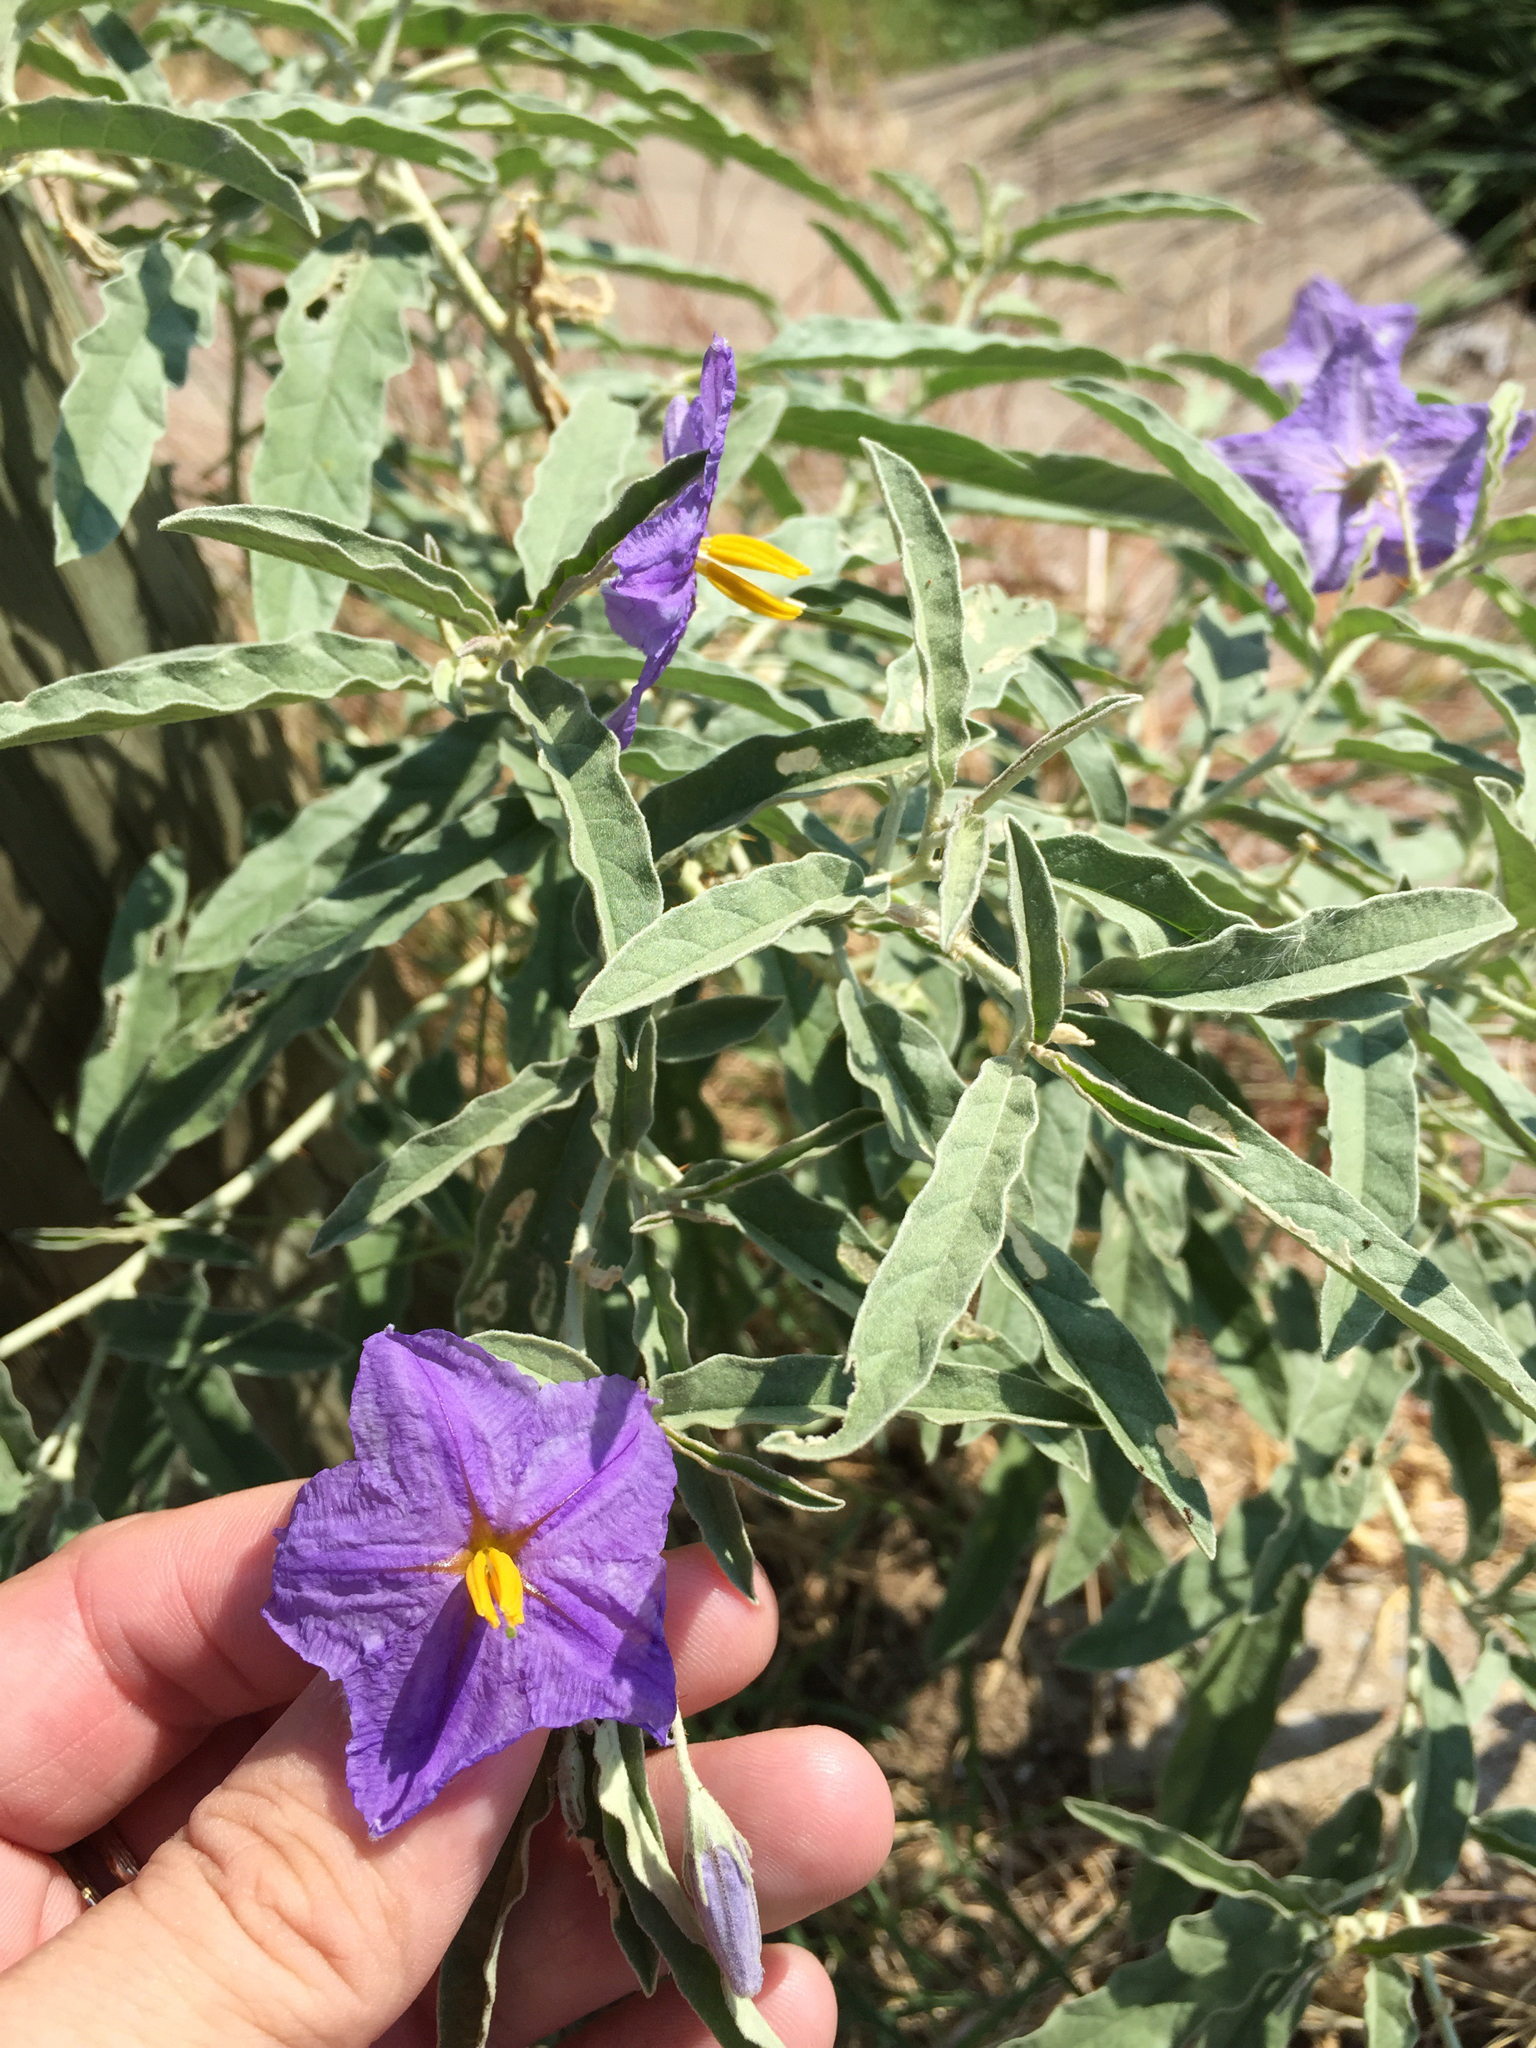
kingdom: Plantae
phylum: Tracheophyta
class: Magnoliopsida
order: Solanales
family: Solanaceae
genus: Solanum
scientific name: Solanum elaeagnifolium
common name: Silverleaf nightshade
